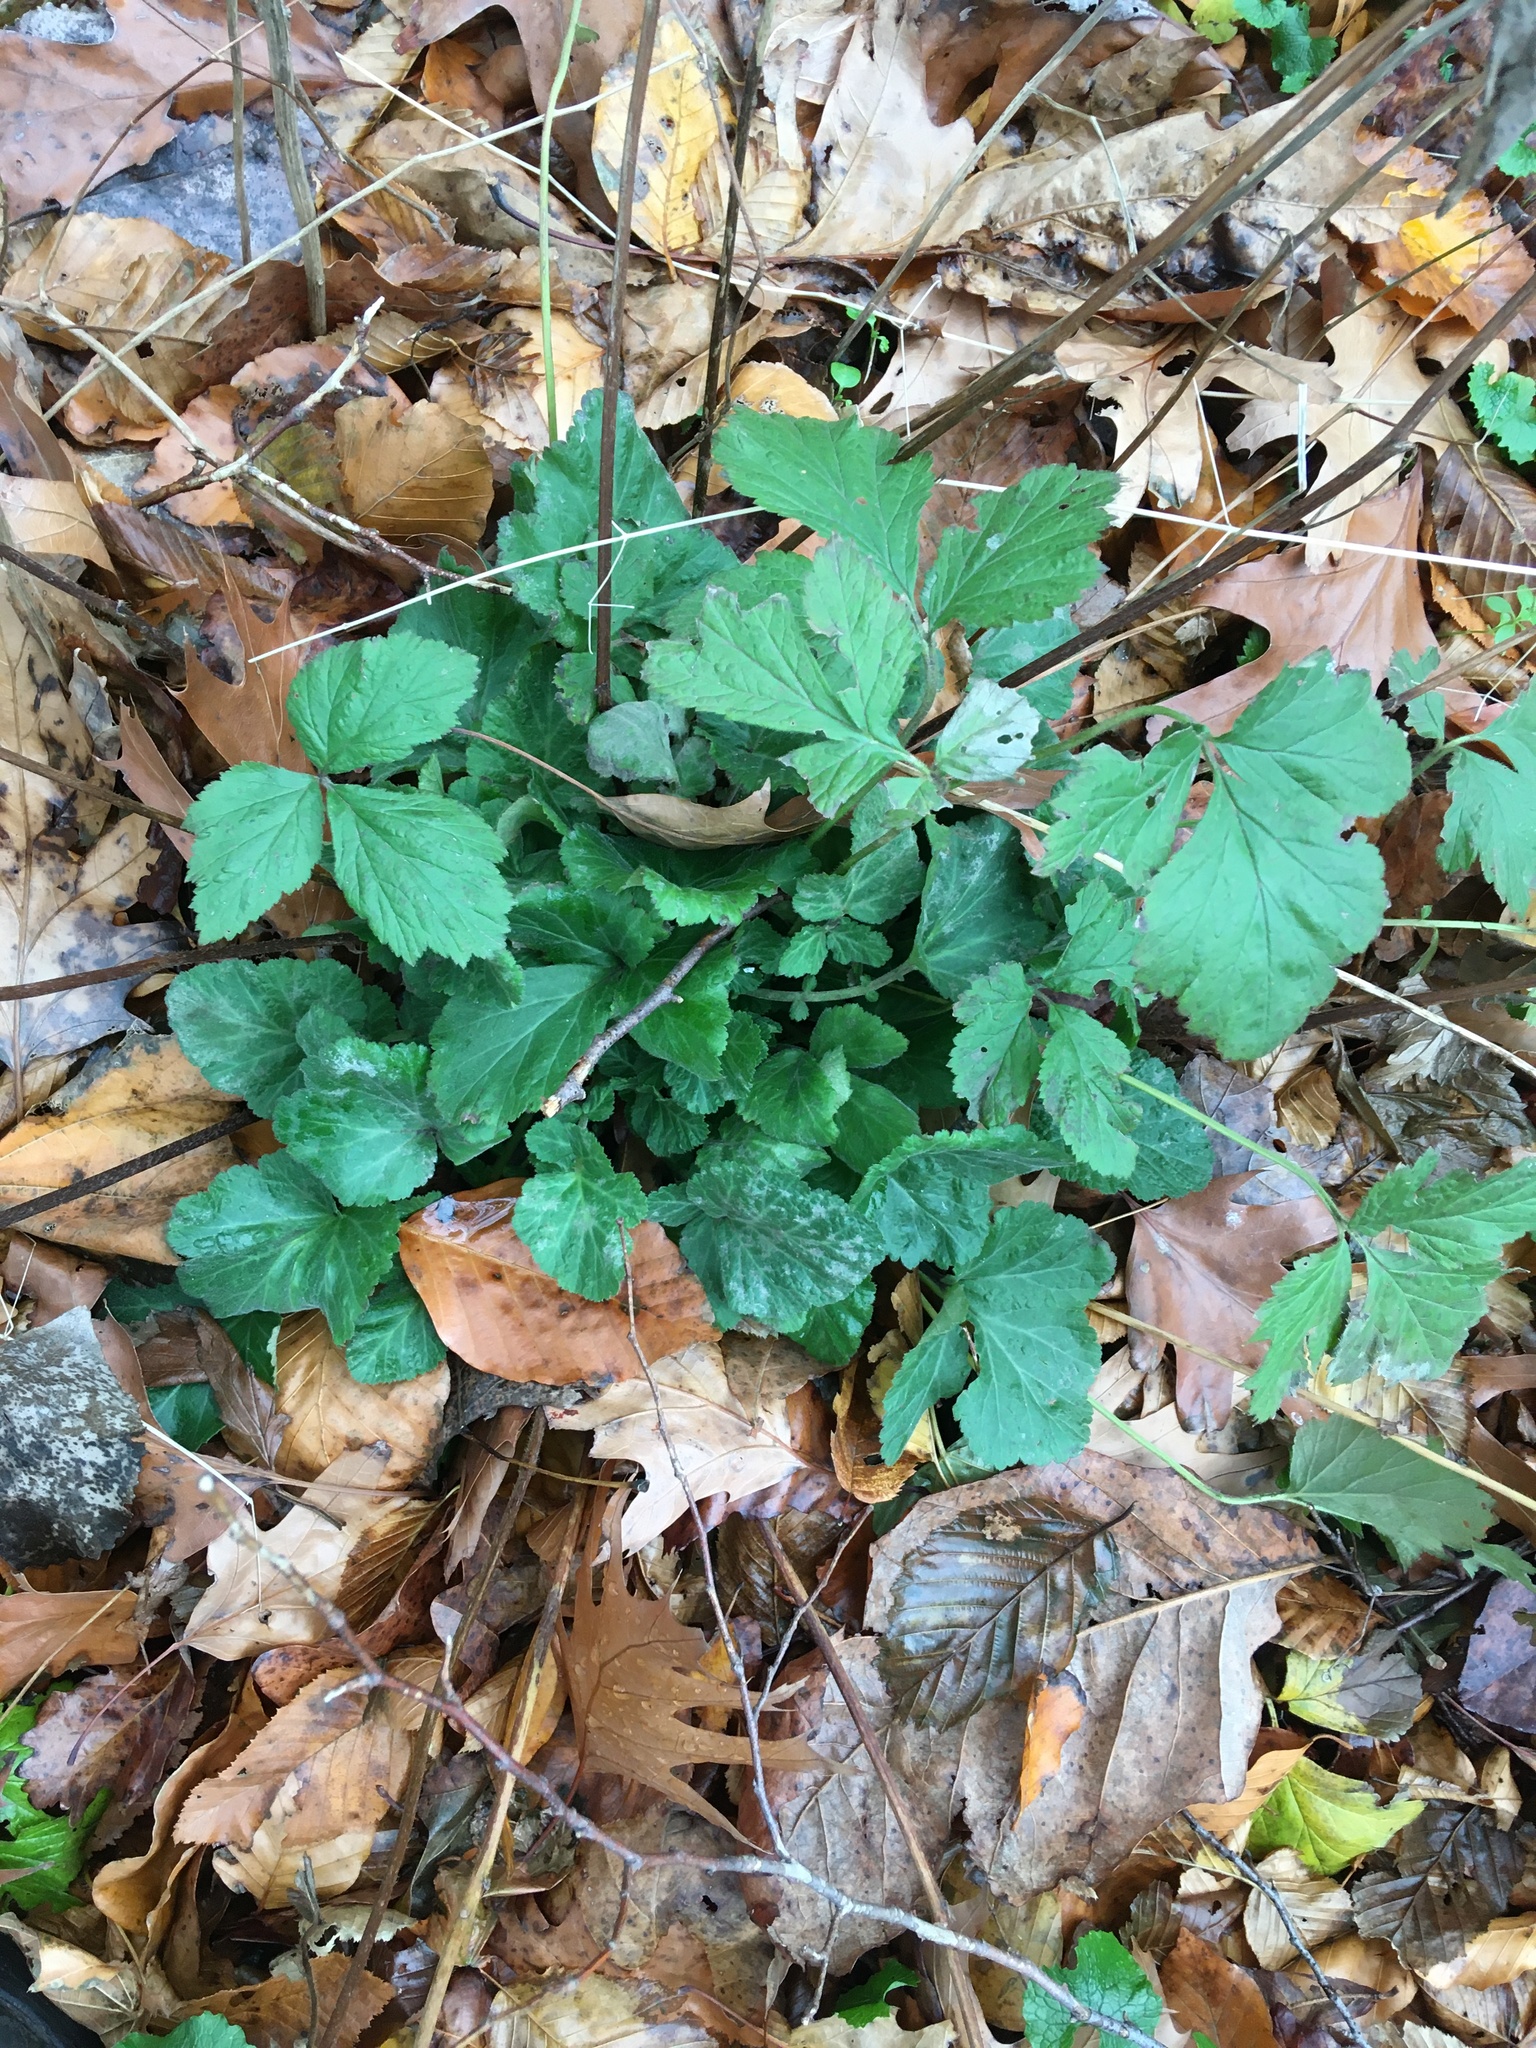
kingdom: Plantae
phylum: Tracheophyta
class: Magnoliopsida
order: Rosales
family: Rosaceae
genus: Geum
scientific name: Geum canadense
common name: White avens
